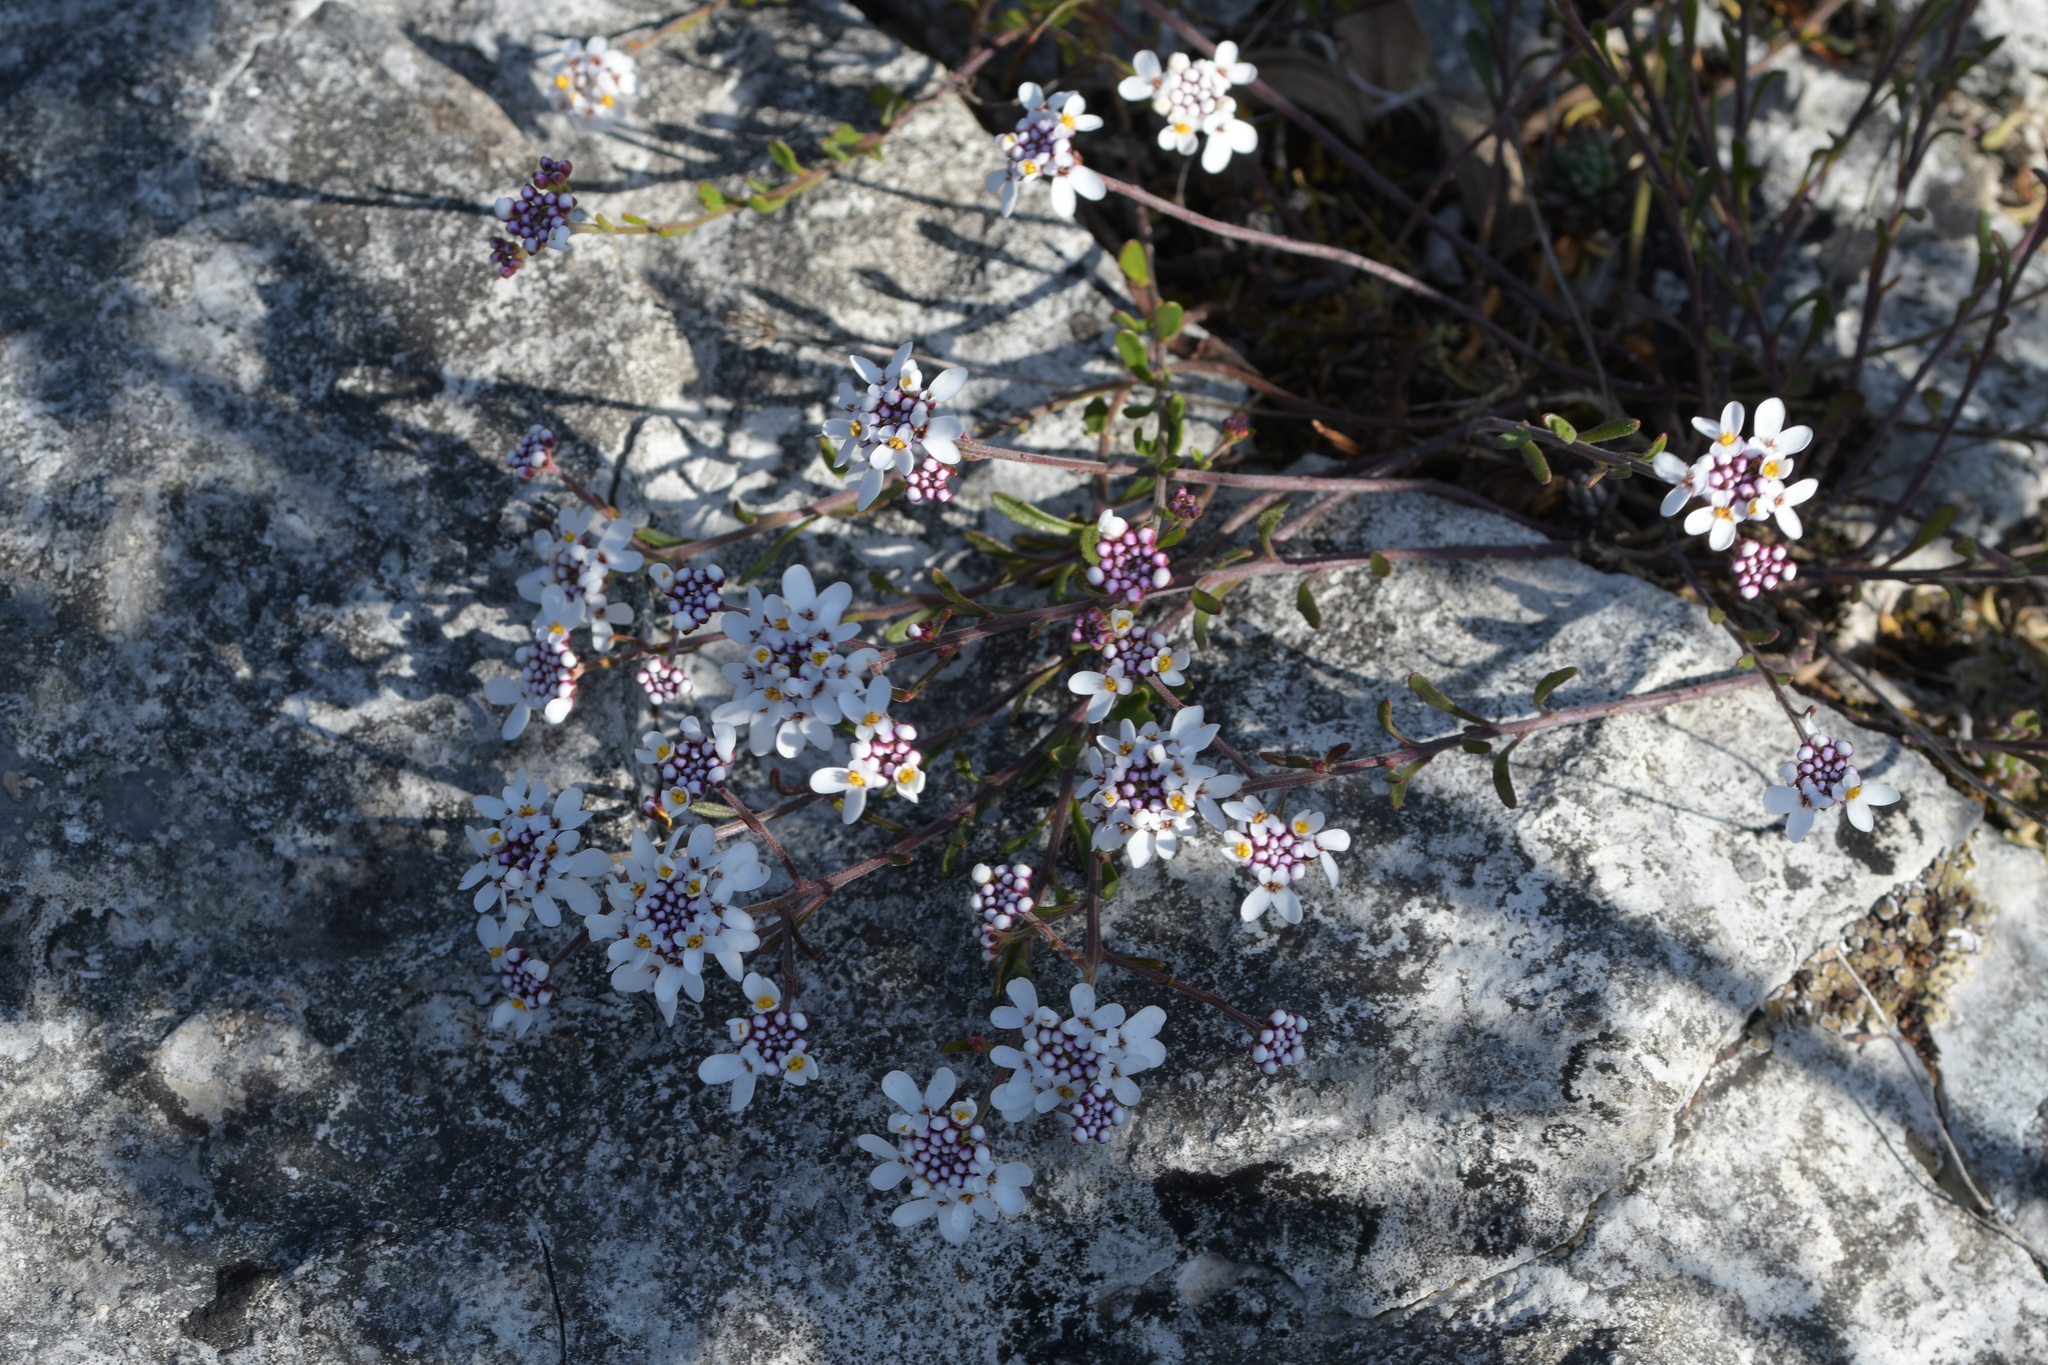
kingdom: Plantae
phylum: Tracheophyta
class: Magnoliopsida
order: Brassicales
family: Brassicaceae
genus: Iberis
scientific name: Iberis procumbens
